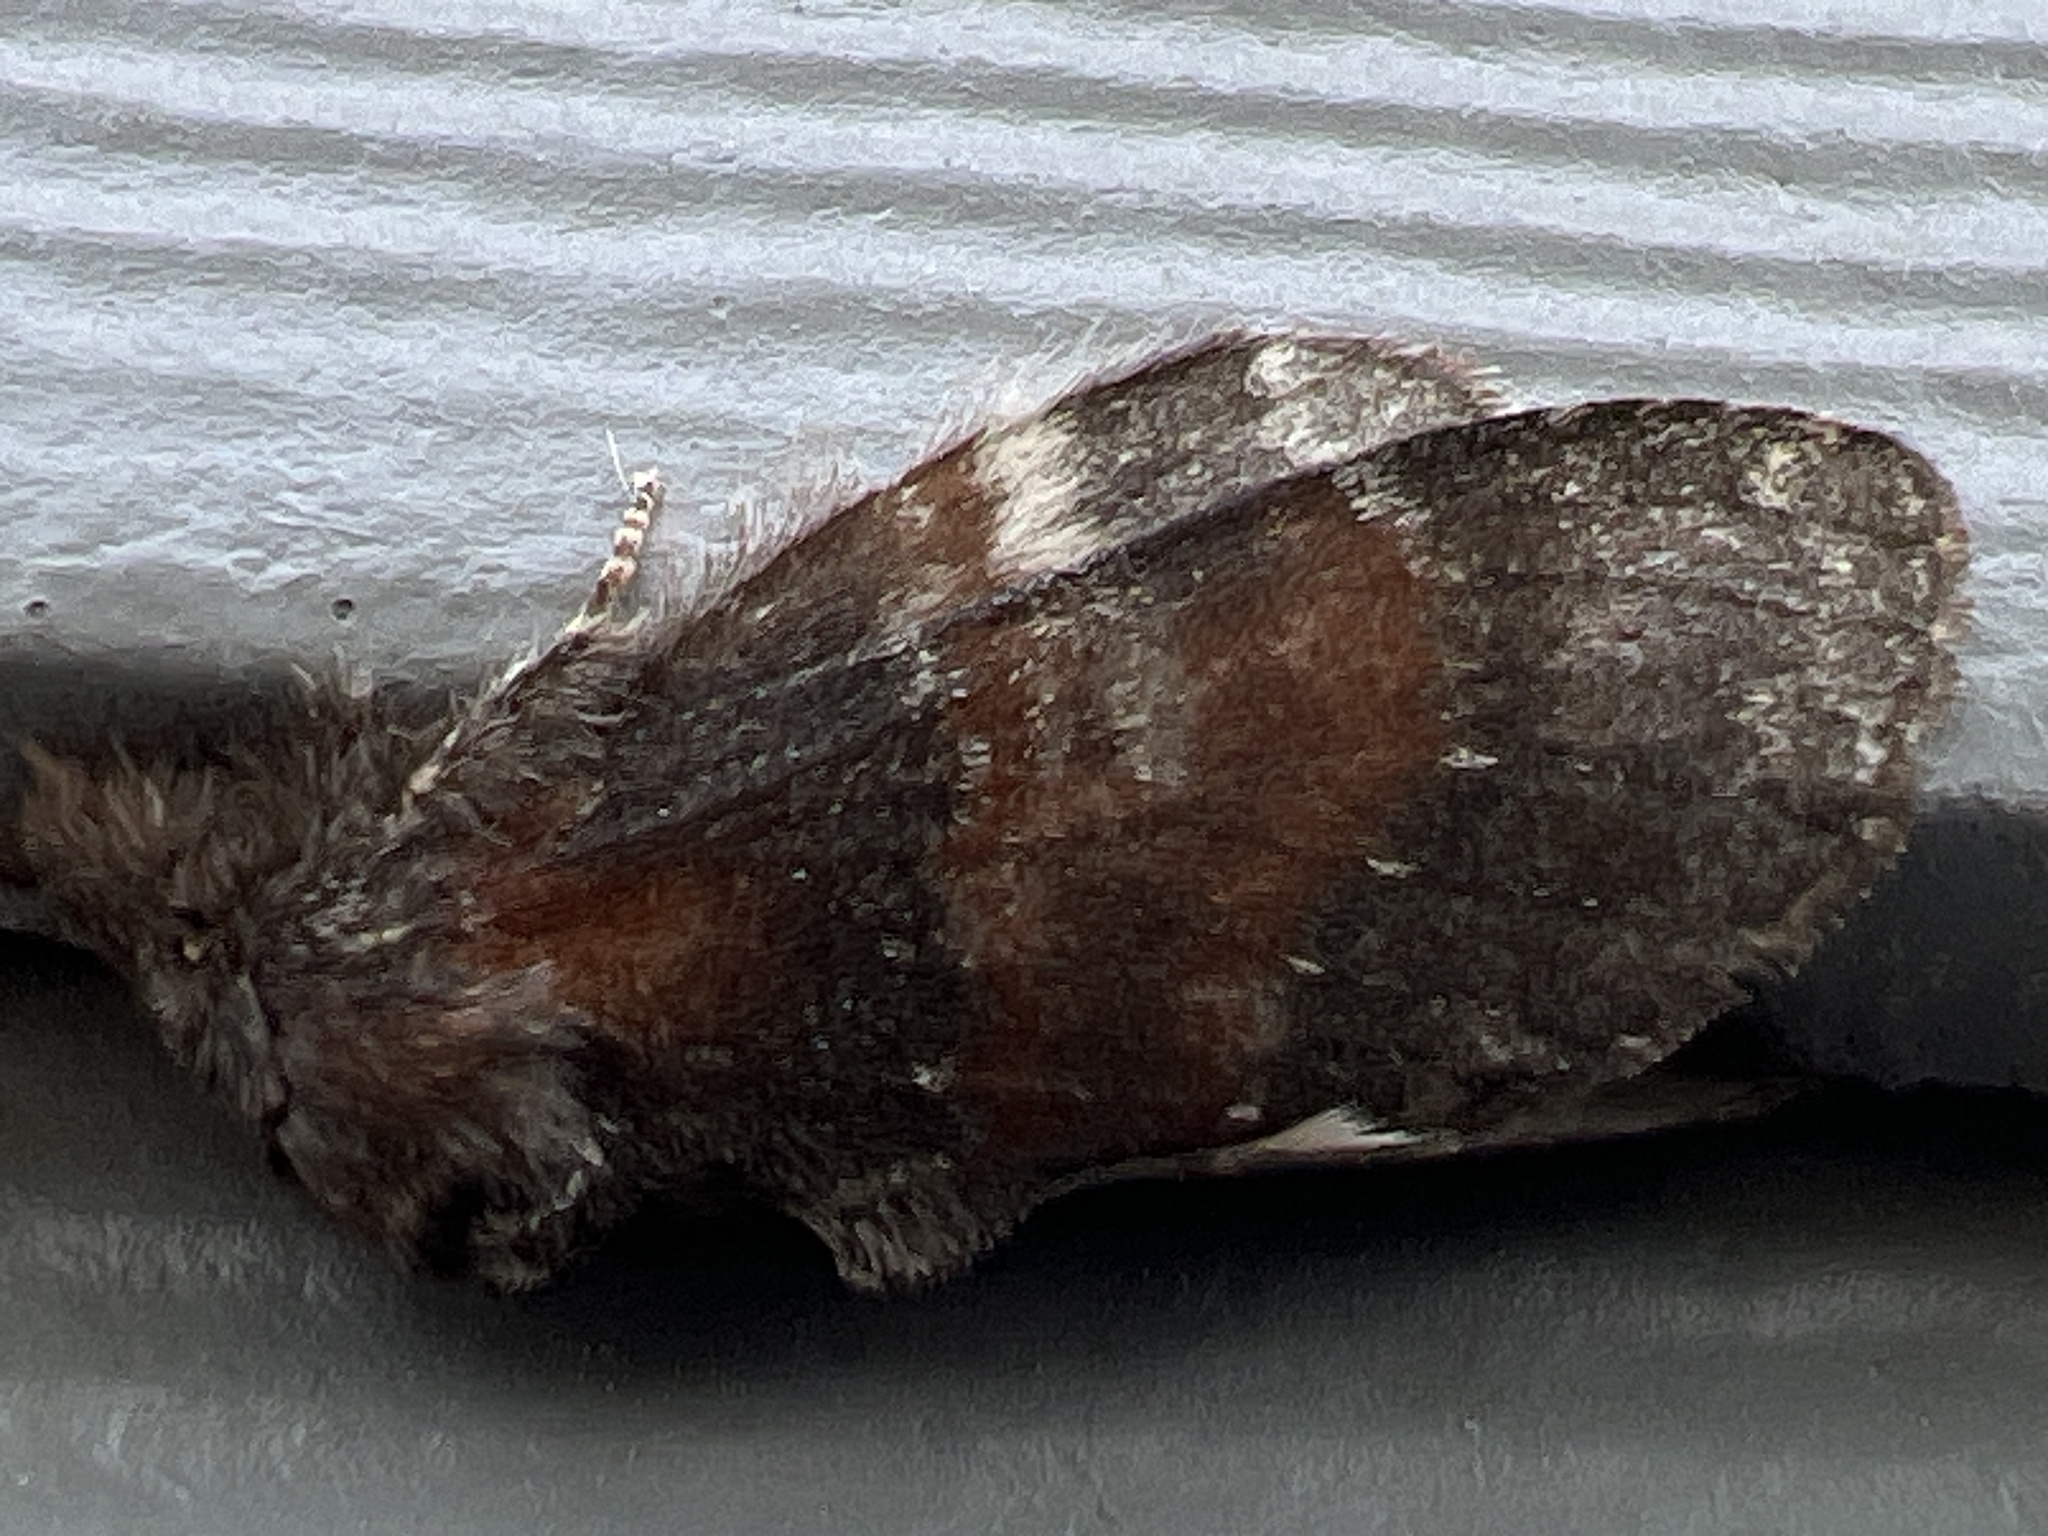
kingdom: Animalia
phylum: Arthropoda
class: Insecta
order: Lepidoptera
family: Notodontidae
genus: Peridea
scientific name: Peridea ferruginea
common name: Chocolate prominent
